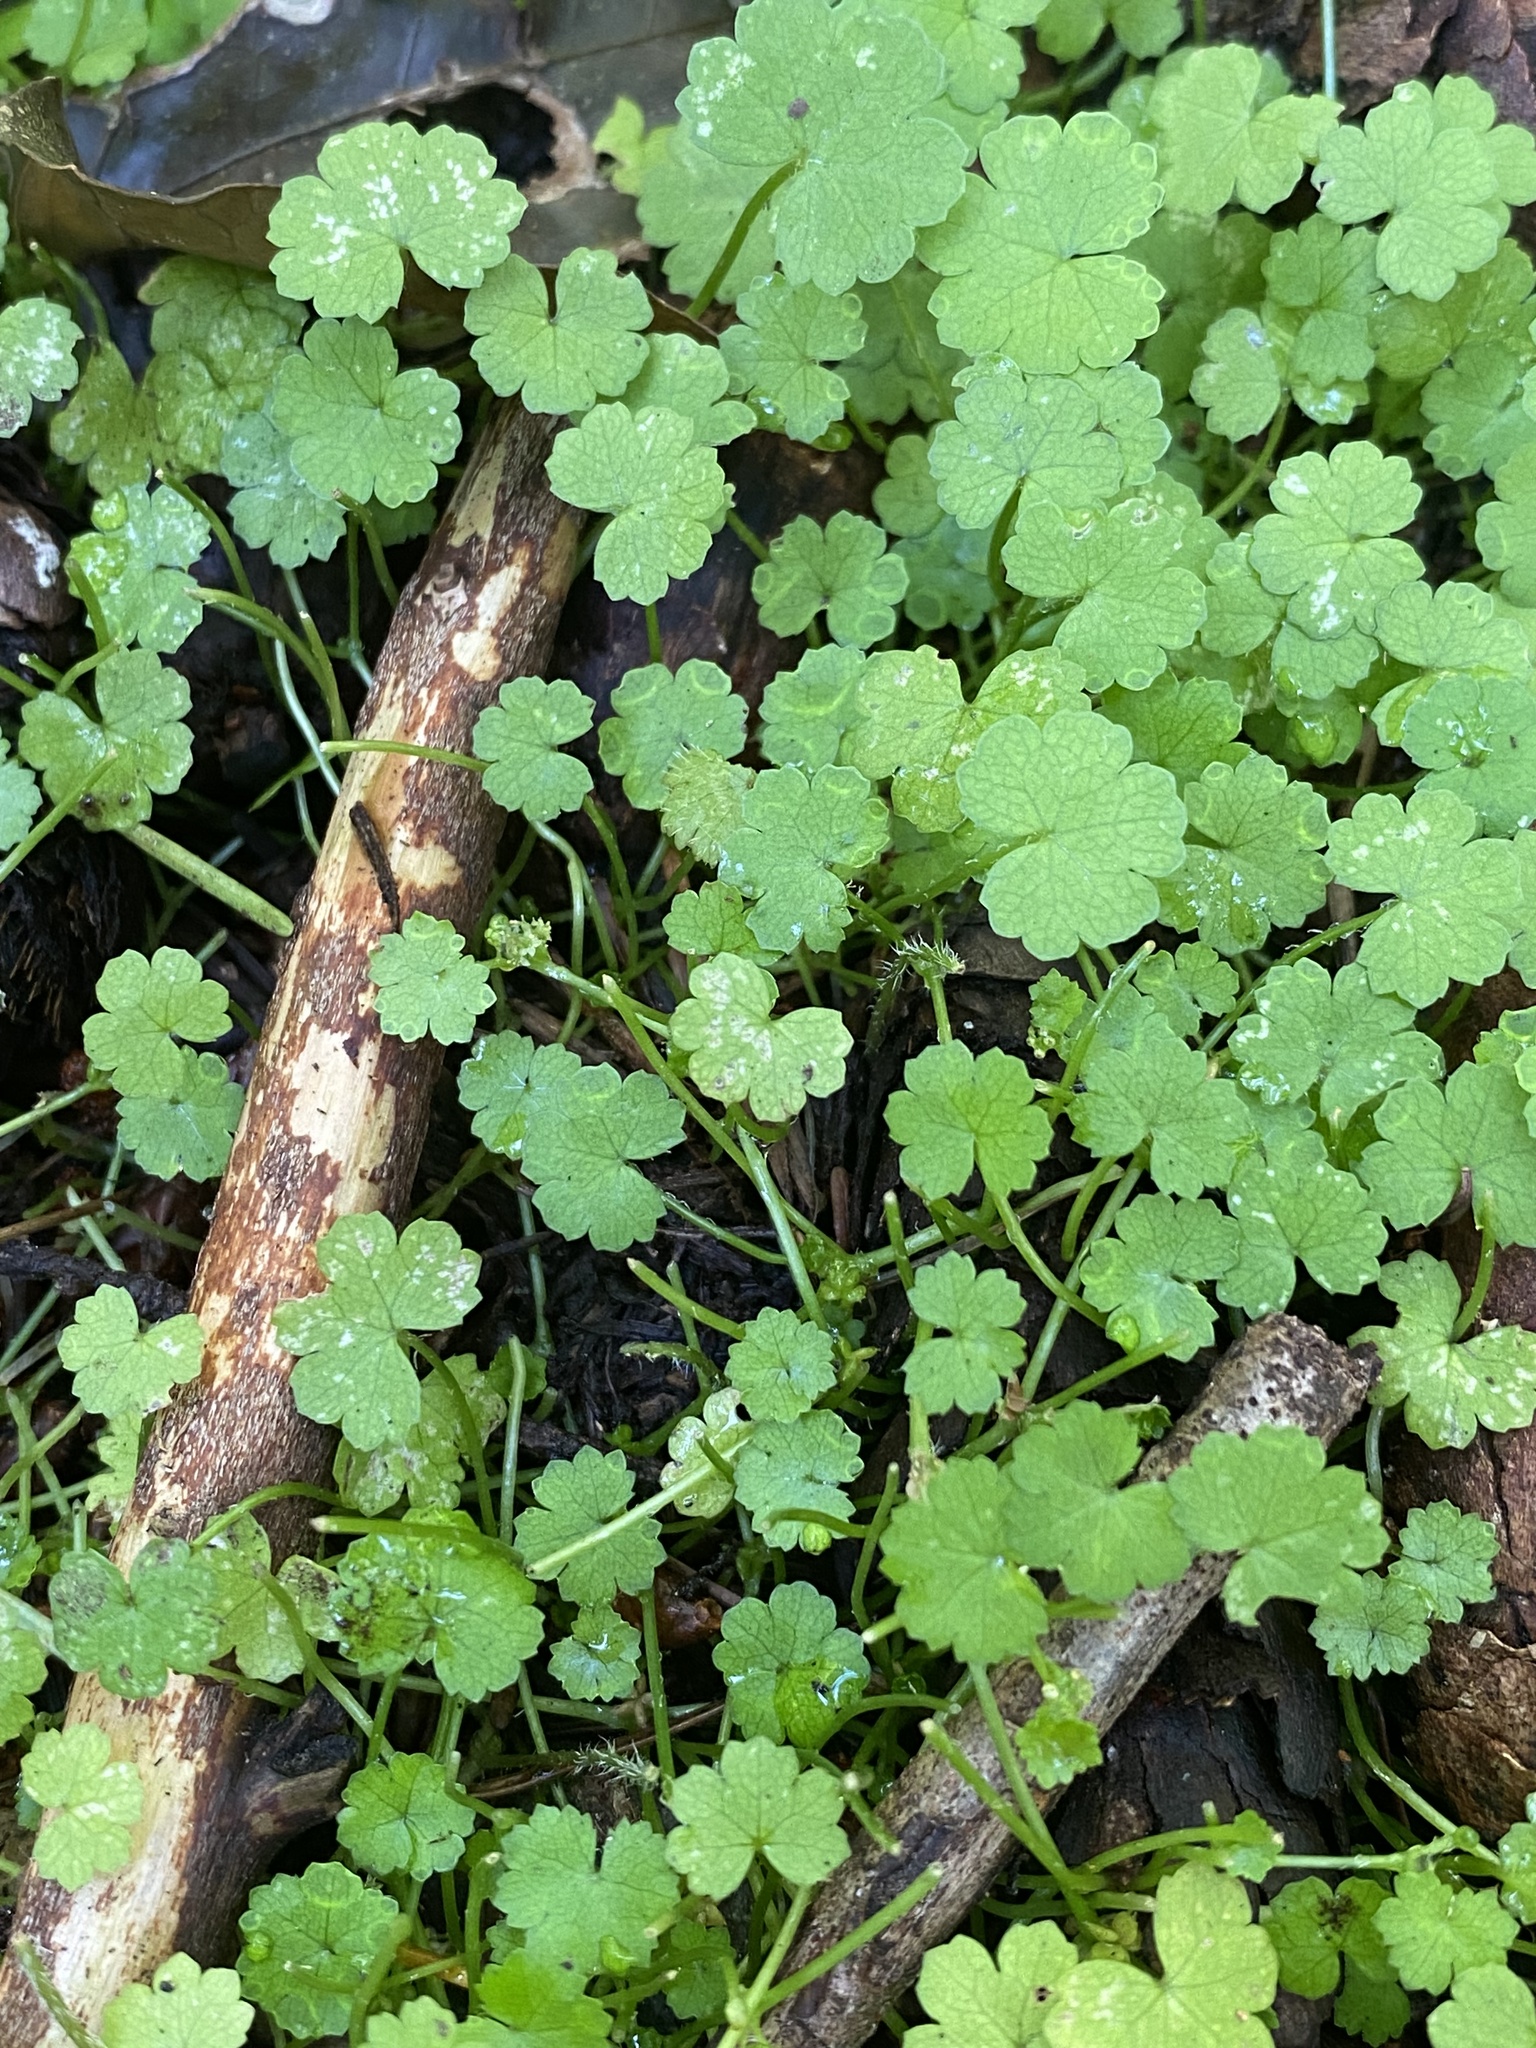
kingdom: Plantae
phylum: Tracheophyta
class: Magnoliopsida
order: Apiales
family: Araliaceae
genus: Hydrocotyle
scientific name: Hydrocotyle heteromeria
